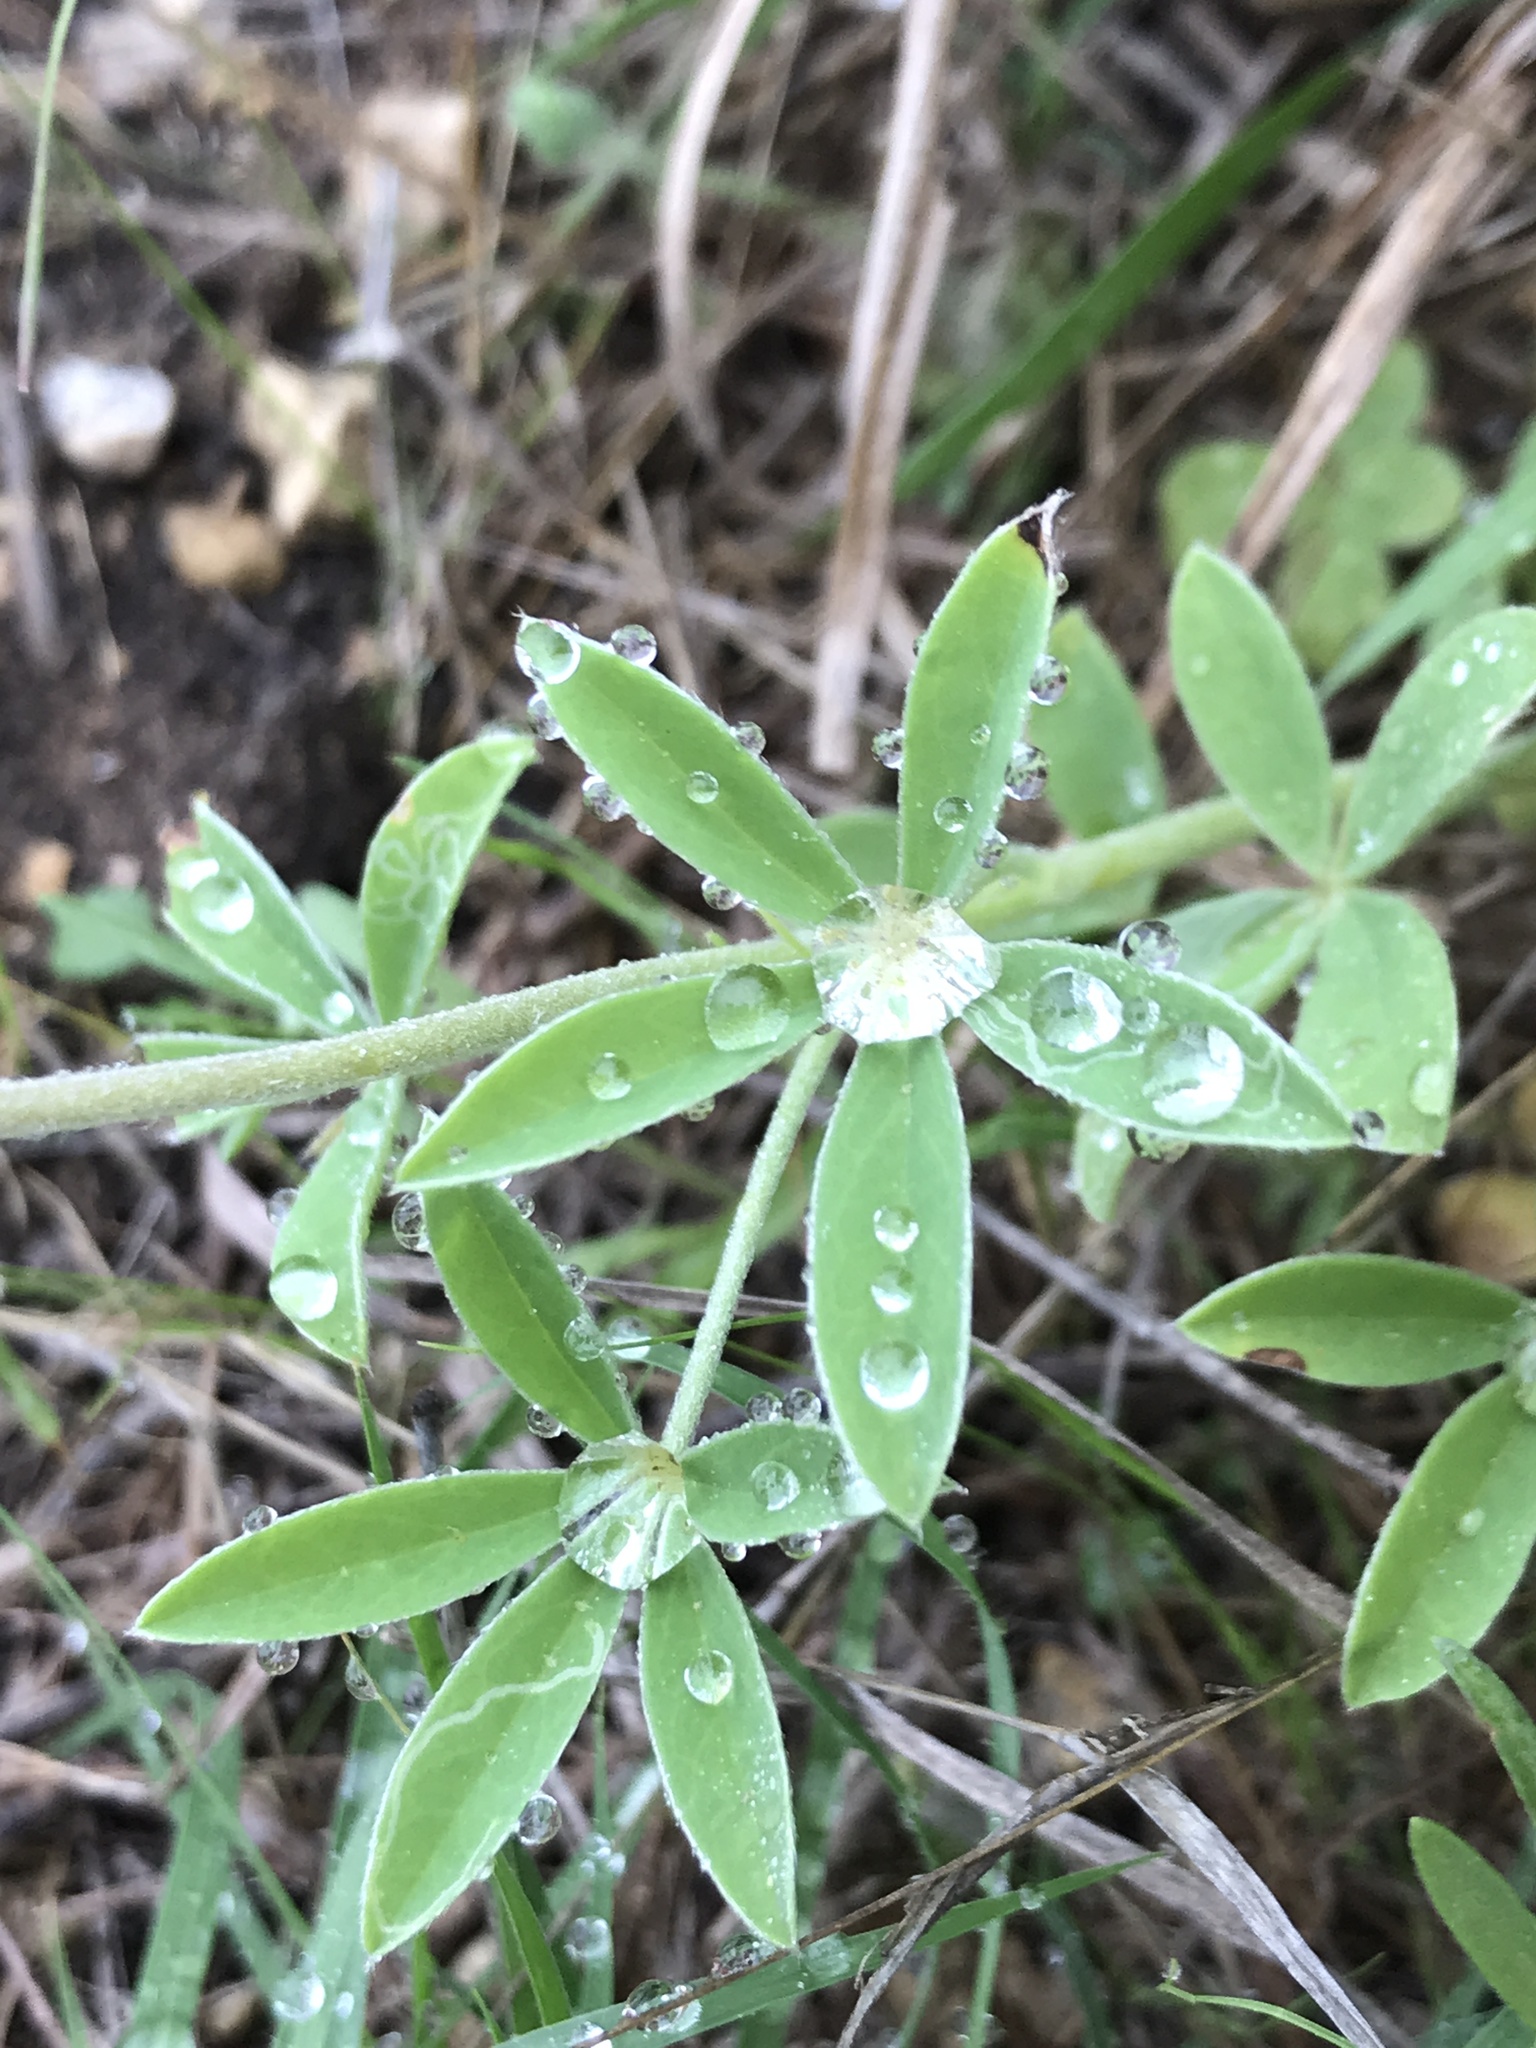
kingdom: Plantae
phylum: Tracheophyta
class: Magnoliopsida
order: Fabales
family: Fabaceae
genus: Lupinus
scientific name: Lupinus texensis
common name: Texas bluebonnet
